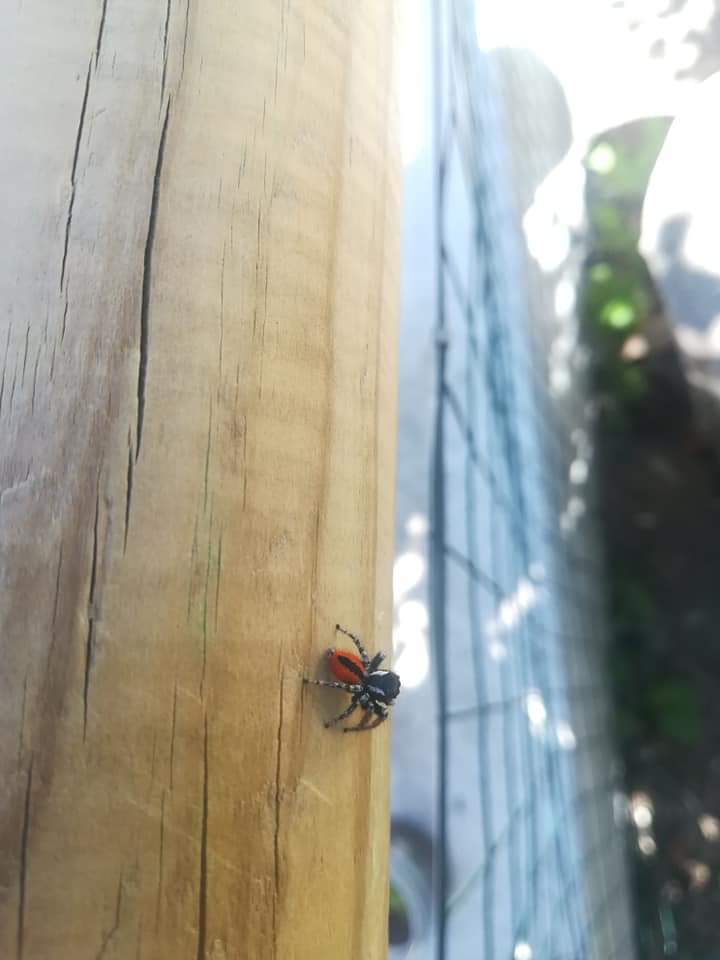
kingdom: Animalia
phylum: Arthropoda
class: Arachnida
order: Araneae
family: Salticidae
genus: Philaeus
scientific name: Philaeus chrysops
